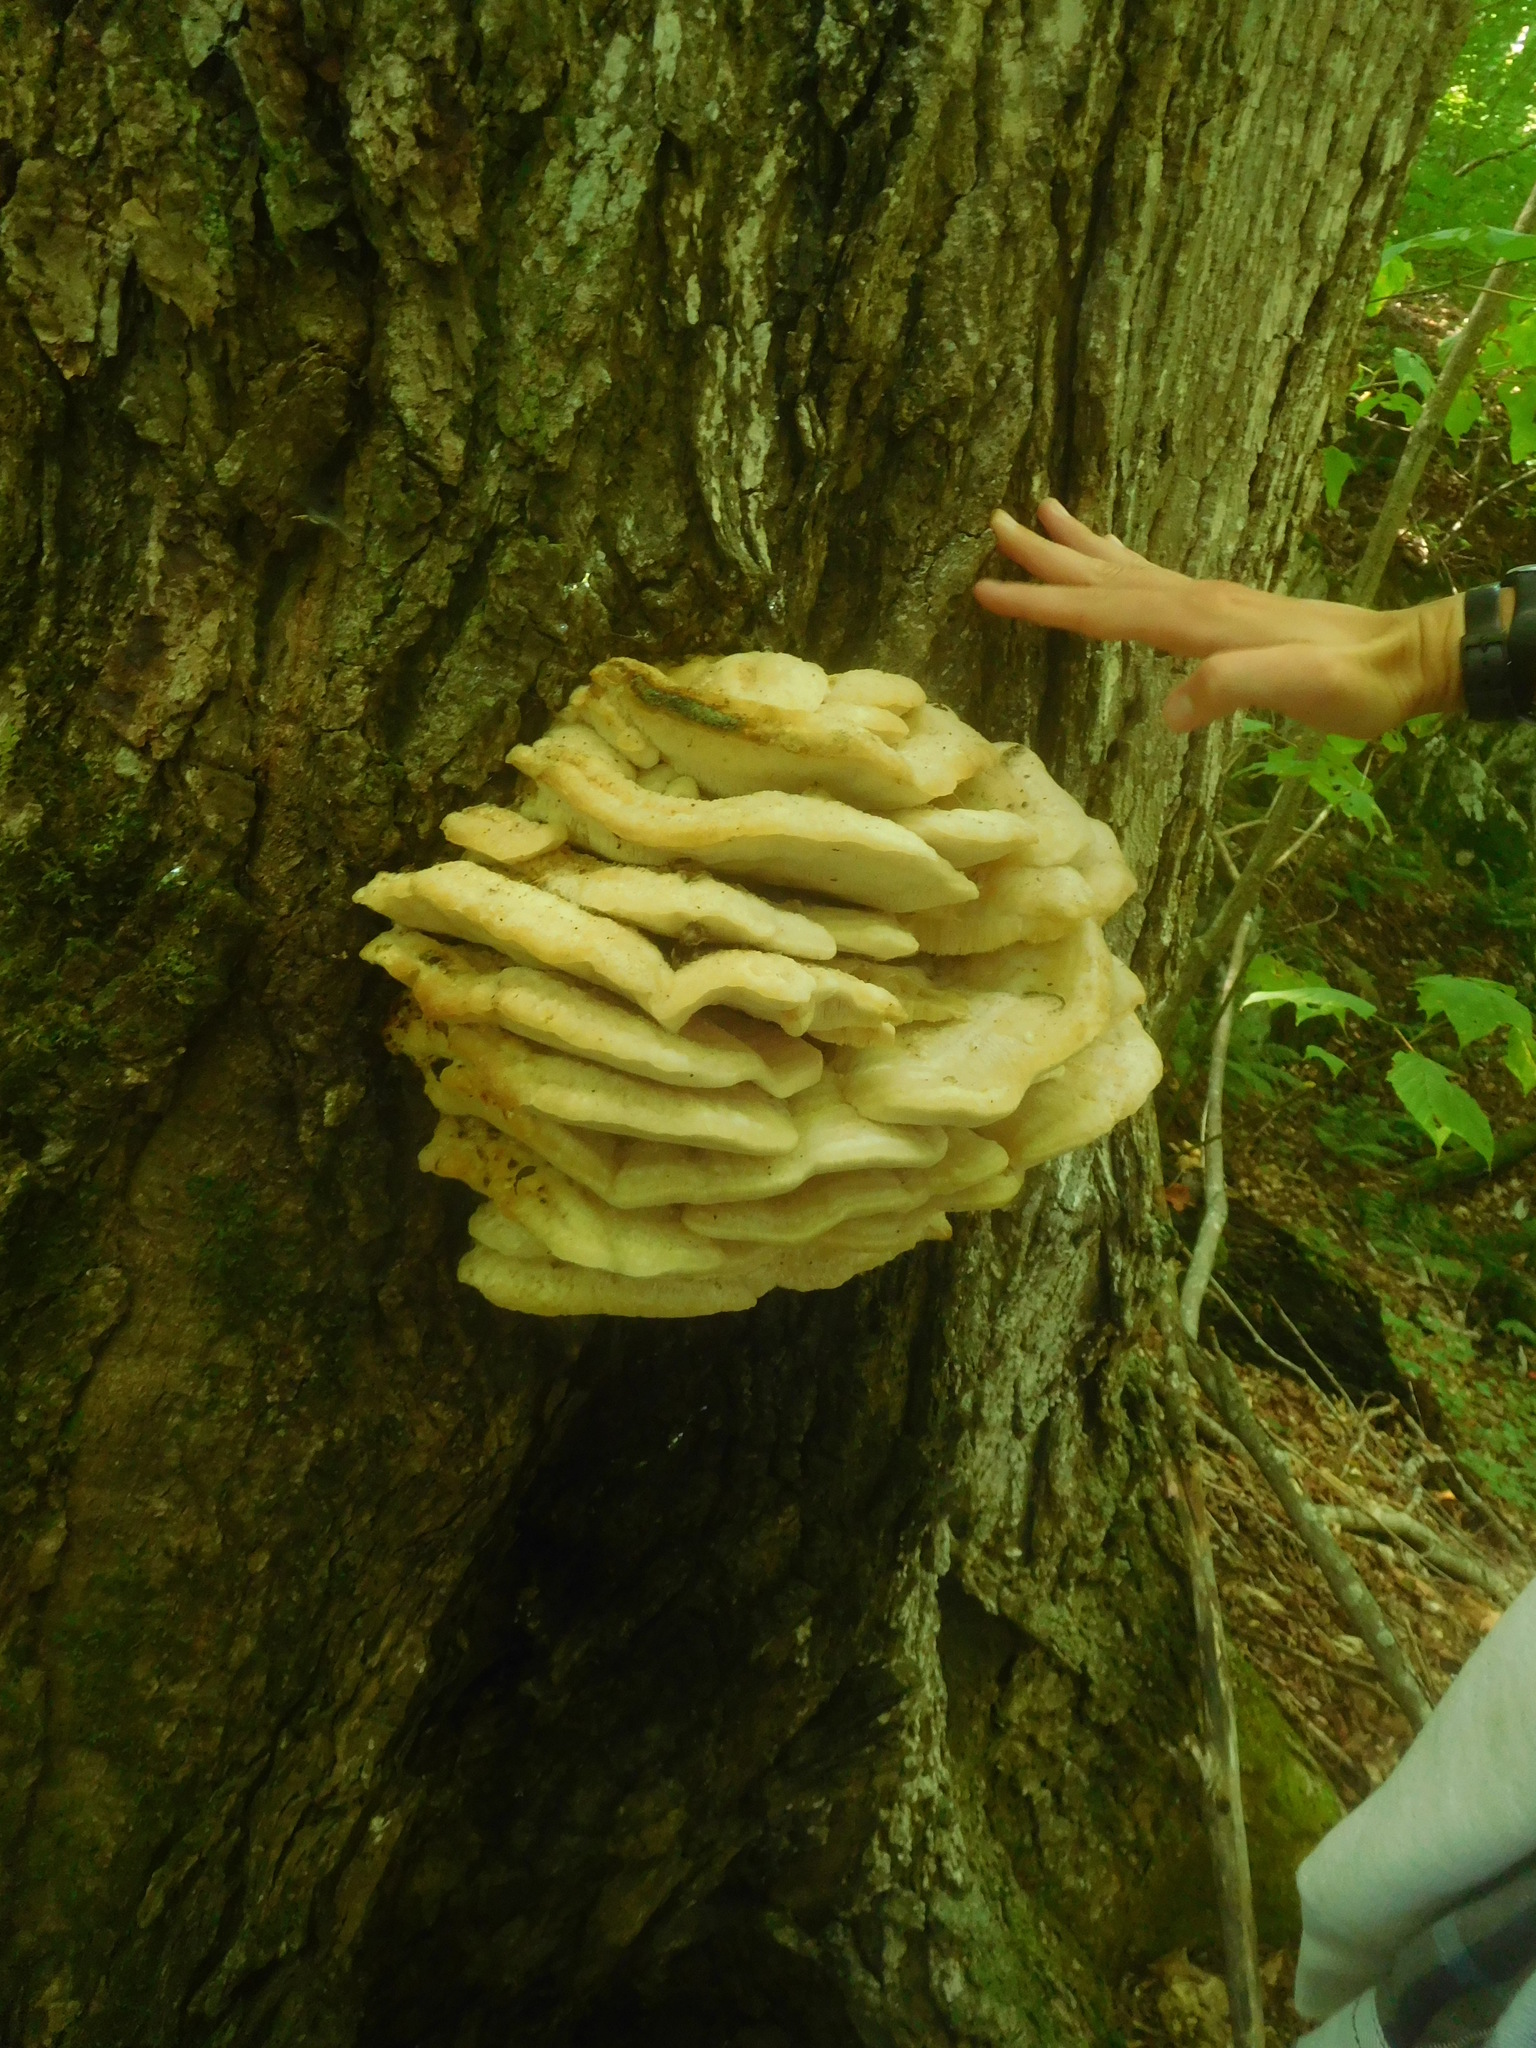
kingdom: Fungi
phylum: Basidiomycota
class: Agaricomycetes
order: Polyporales
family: Meruliaceae
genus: Climacodon
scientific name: Climacodon septentrionalis
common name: Northern tooth
